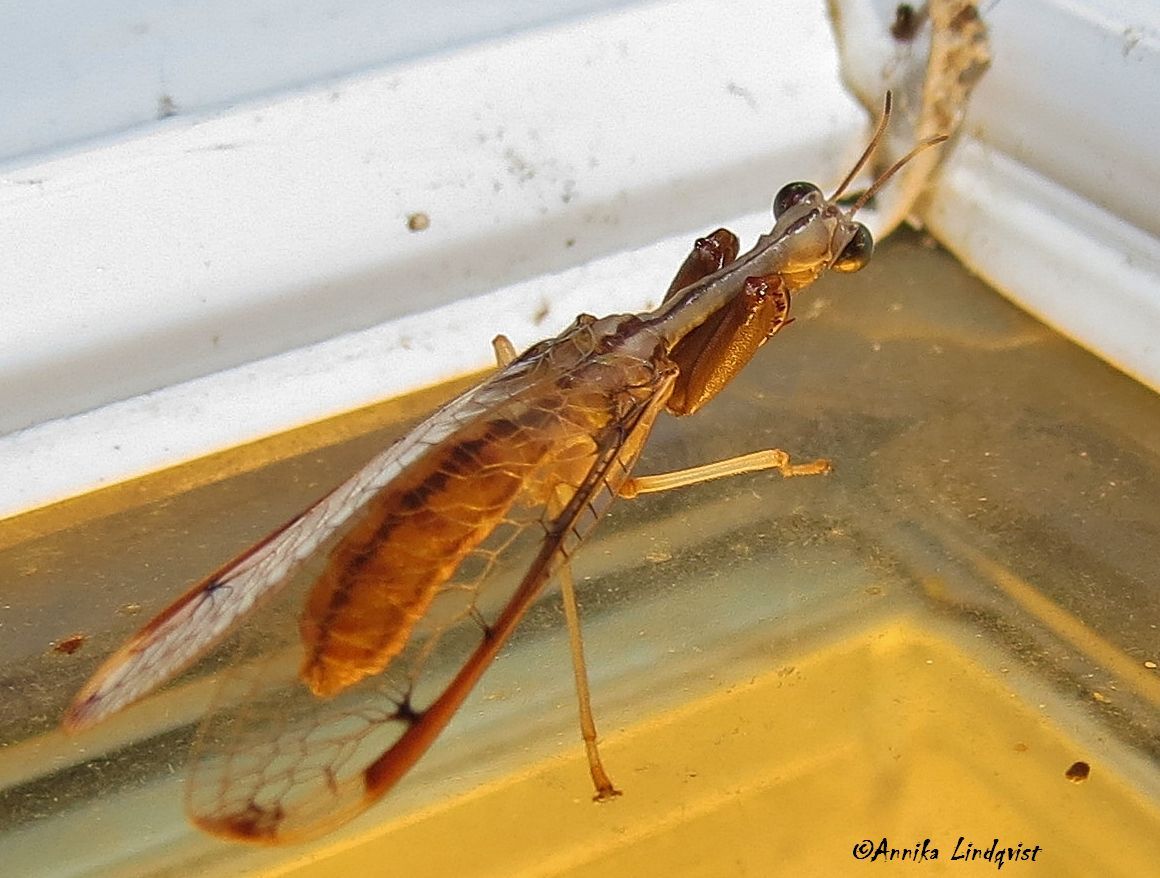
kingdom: Animalia
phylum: Arthropoda
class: Insecta
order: Neuroptera
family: Mantispidae
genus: Dicromantispa
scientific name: Dicromantispa interrupta
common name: Four-spotted mantidfly
